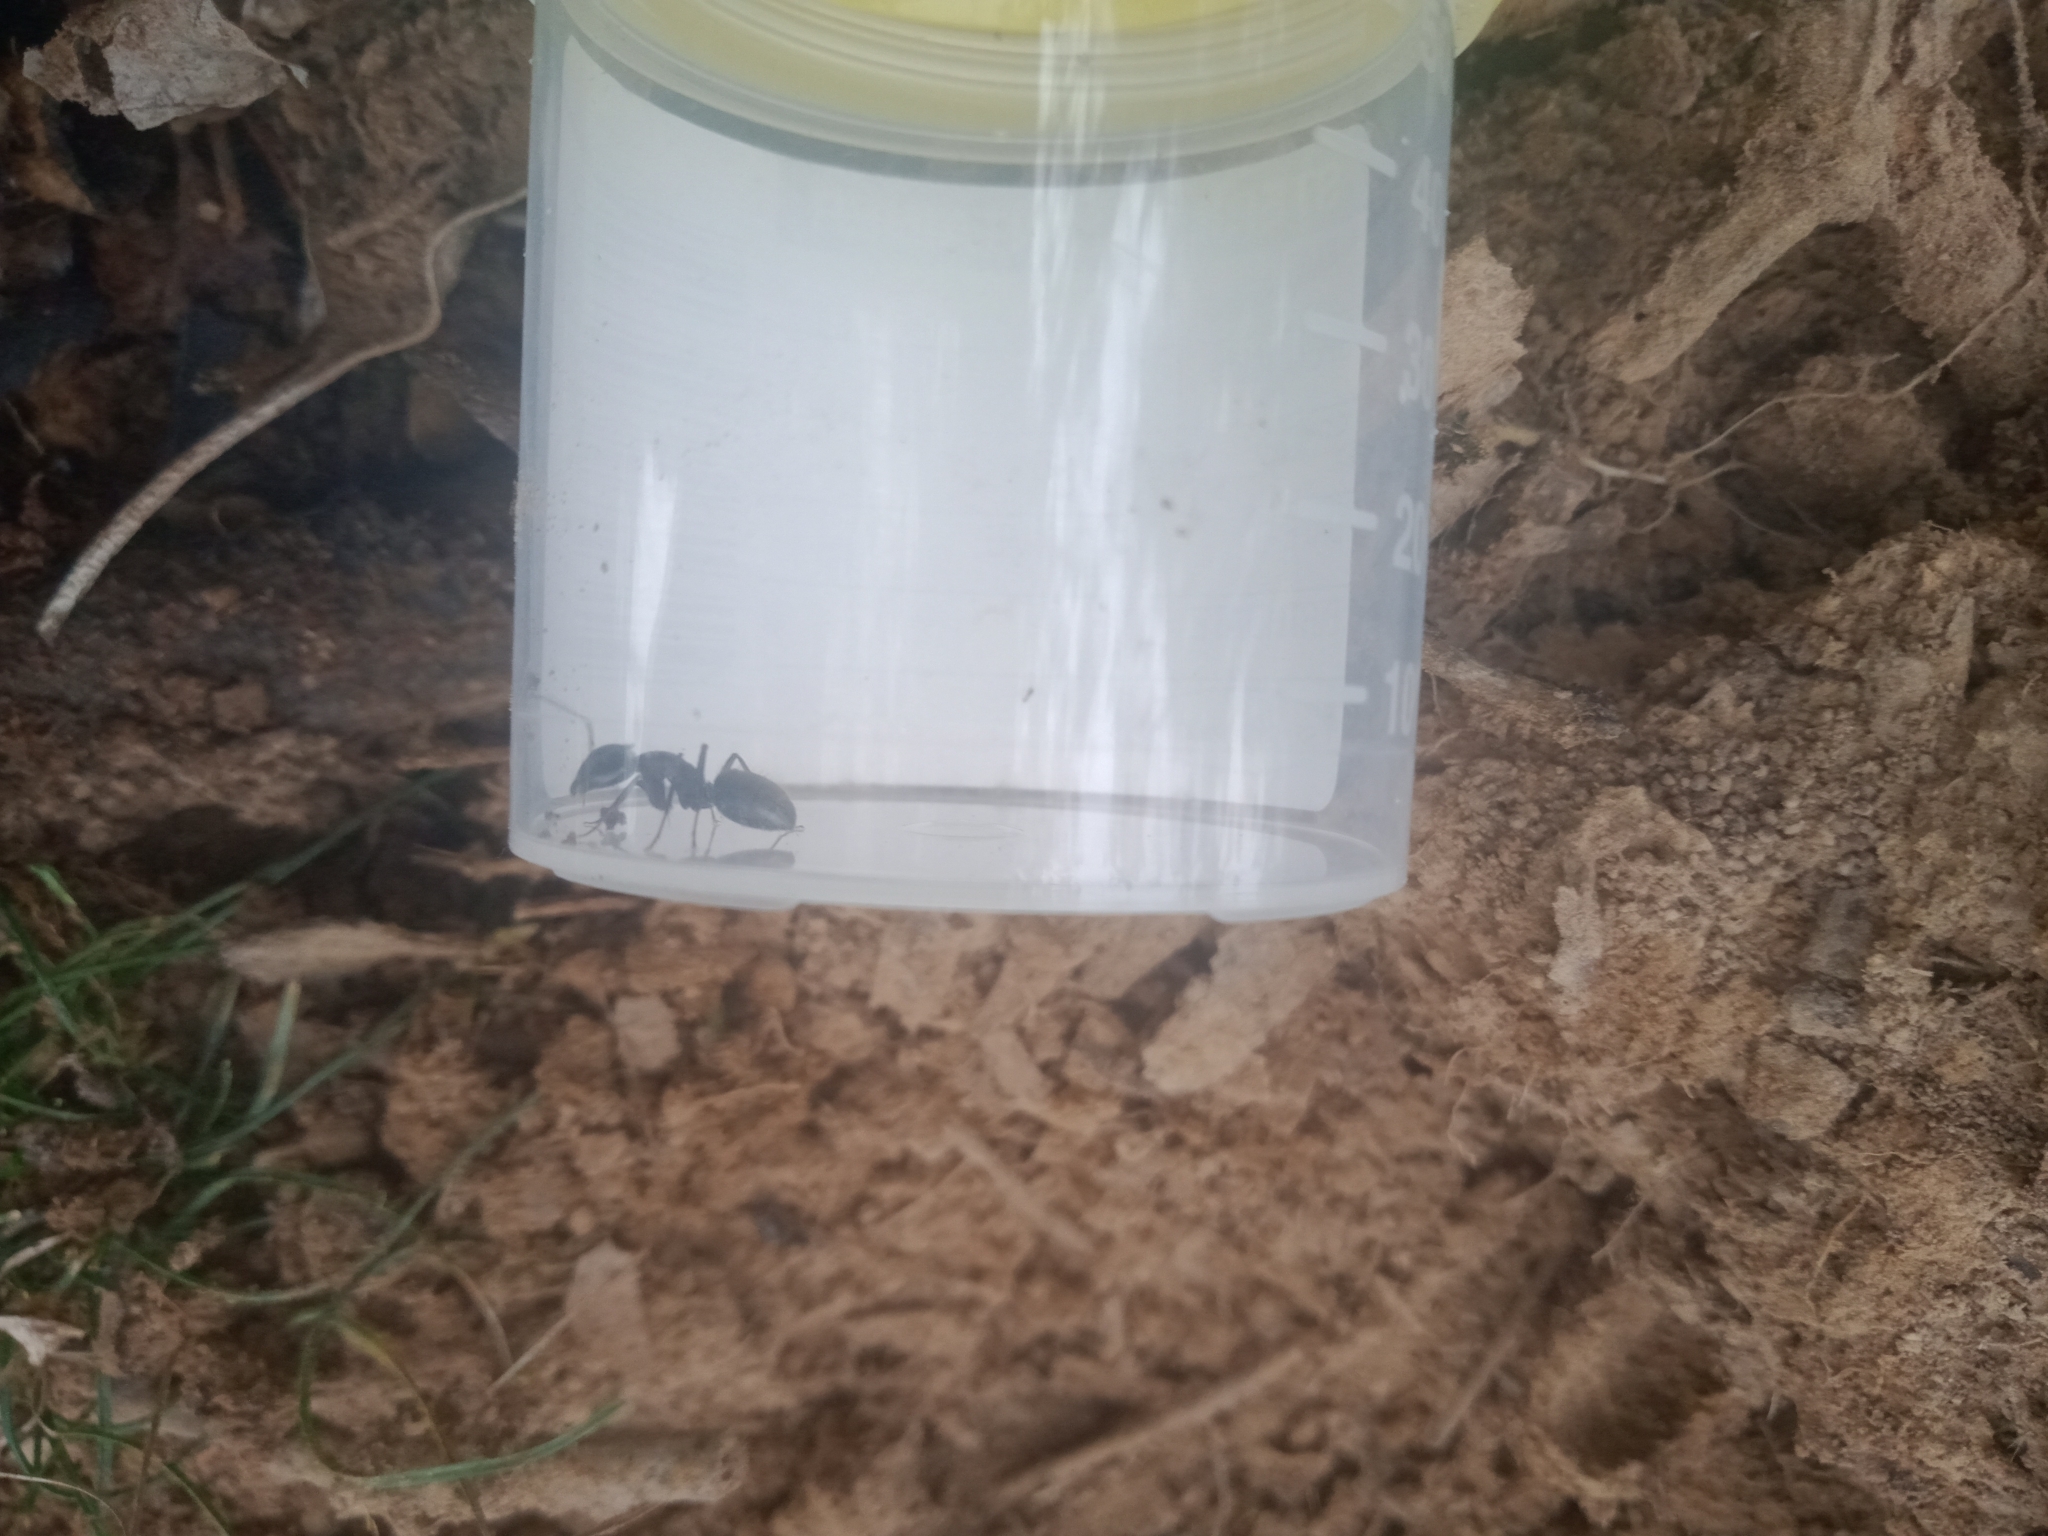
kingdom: Animalia
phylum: Arthropoda
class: Insecta
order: Hymenoptera
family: Formicidae
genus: Camponotus
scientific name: Camponotus aeneopilosus
